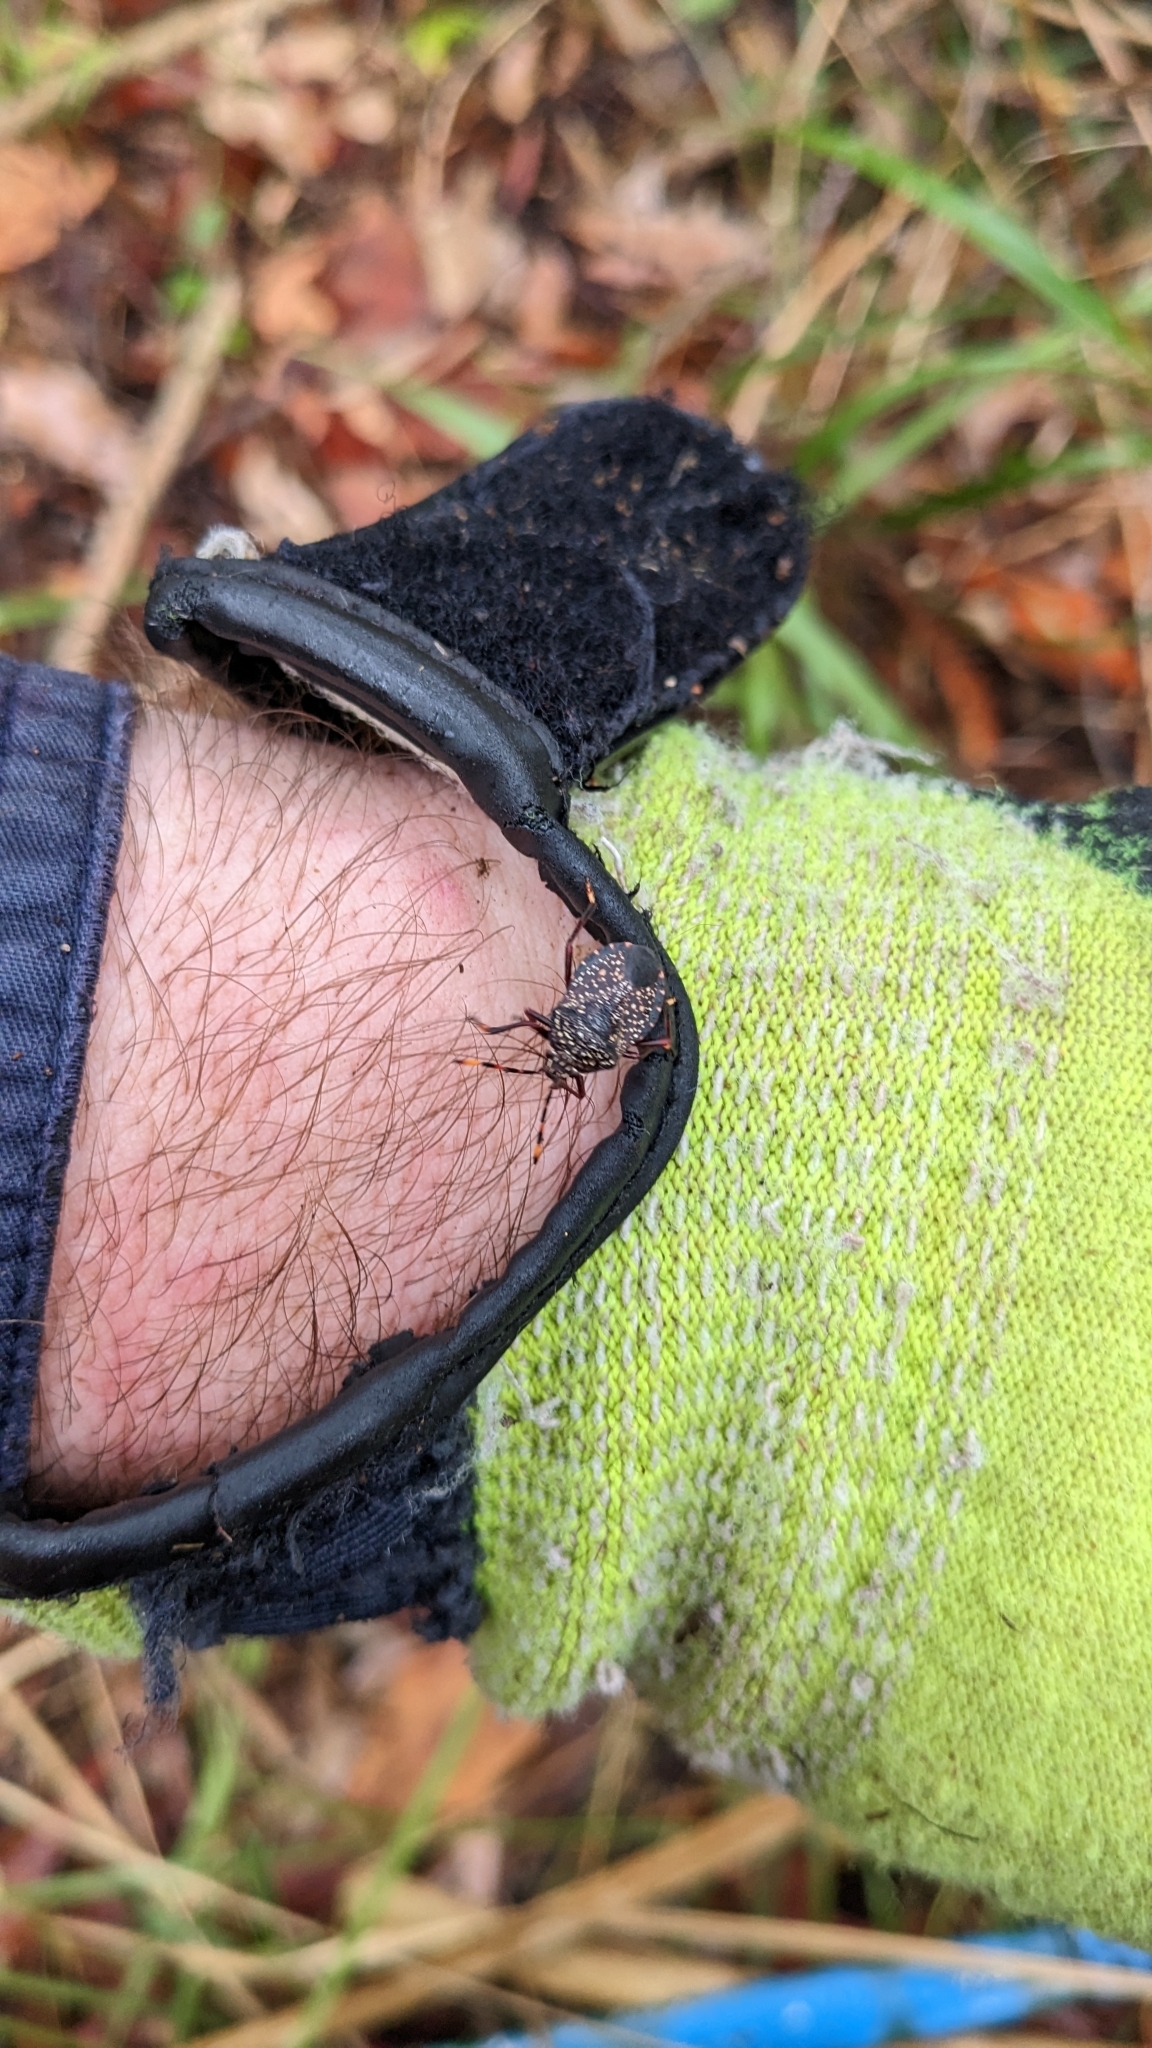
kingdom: Animalia
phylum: Arthropoda
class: Insecta
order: Hemiptera
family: Pentatomidae
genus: Notius
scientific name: Notius
